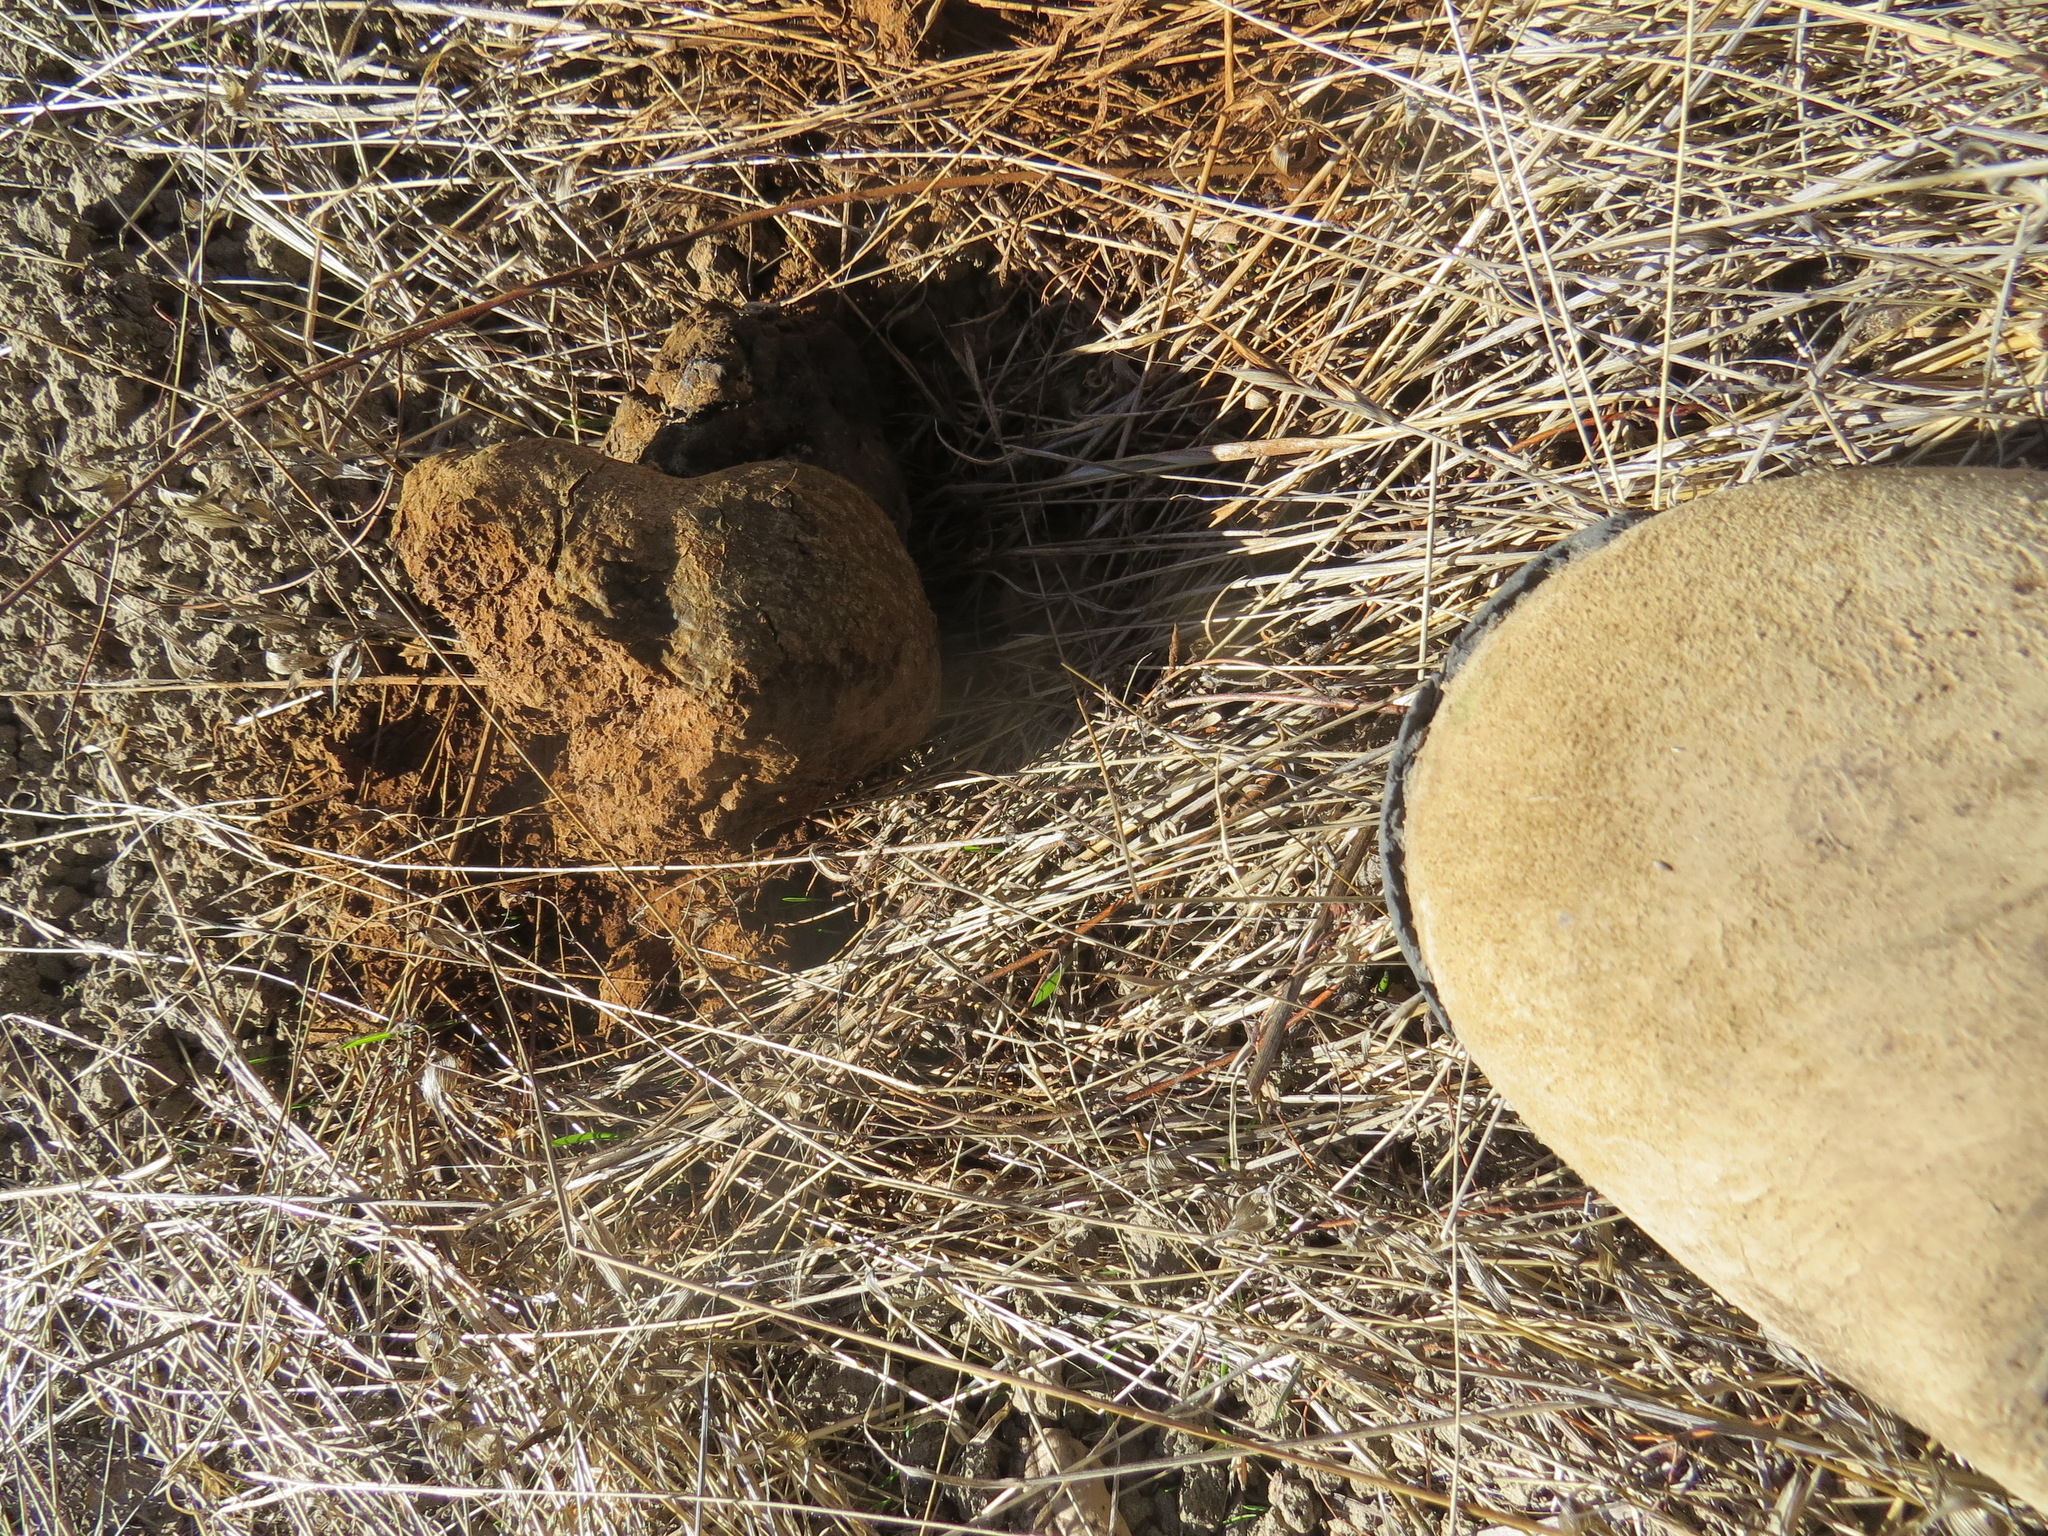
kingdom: Fungi
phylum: Basidiomycota
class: Agaricomycetes
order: Boletales
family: Sclerodermataceae
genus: Pisolithus
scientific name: Pisolithus tinctorius
